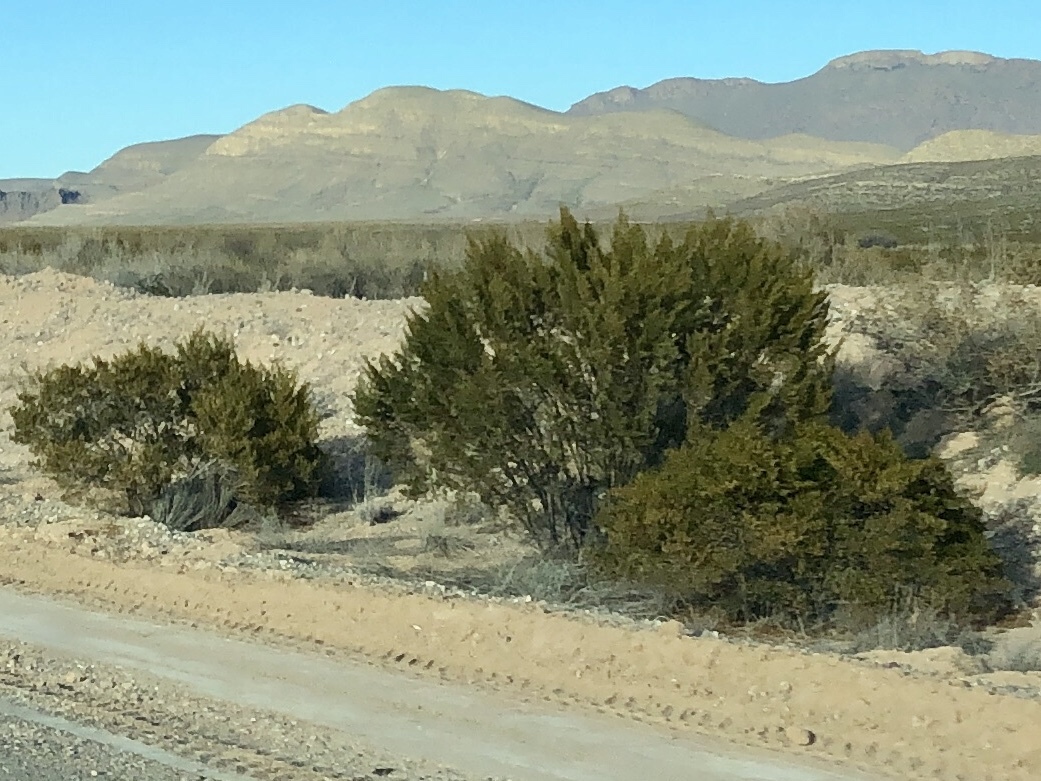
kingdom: Plantae
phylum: Tracheophyta
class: Magnoliopsida
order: Zygophyllales
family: Zygophyllaceae
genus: Larrea
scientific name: Larrea tridentata
